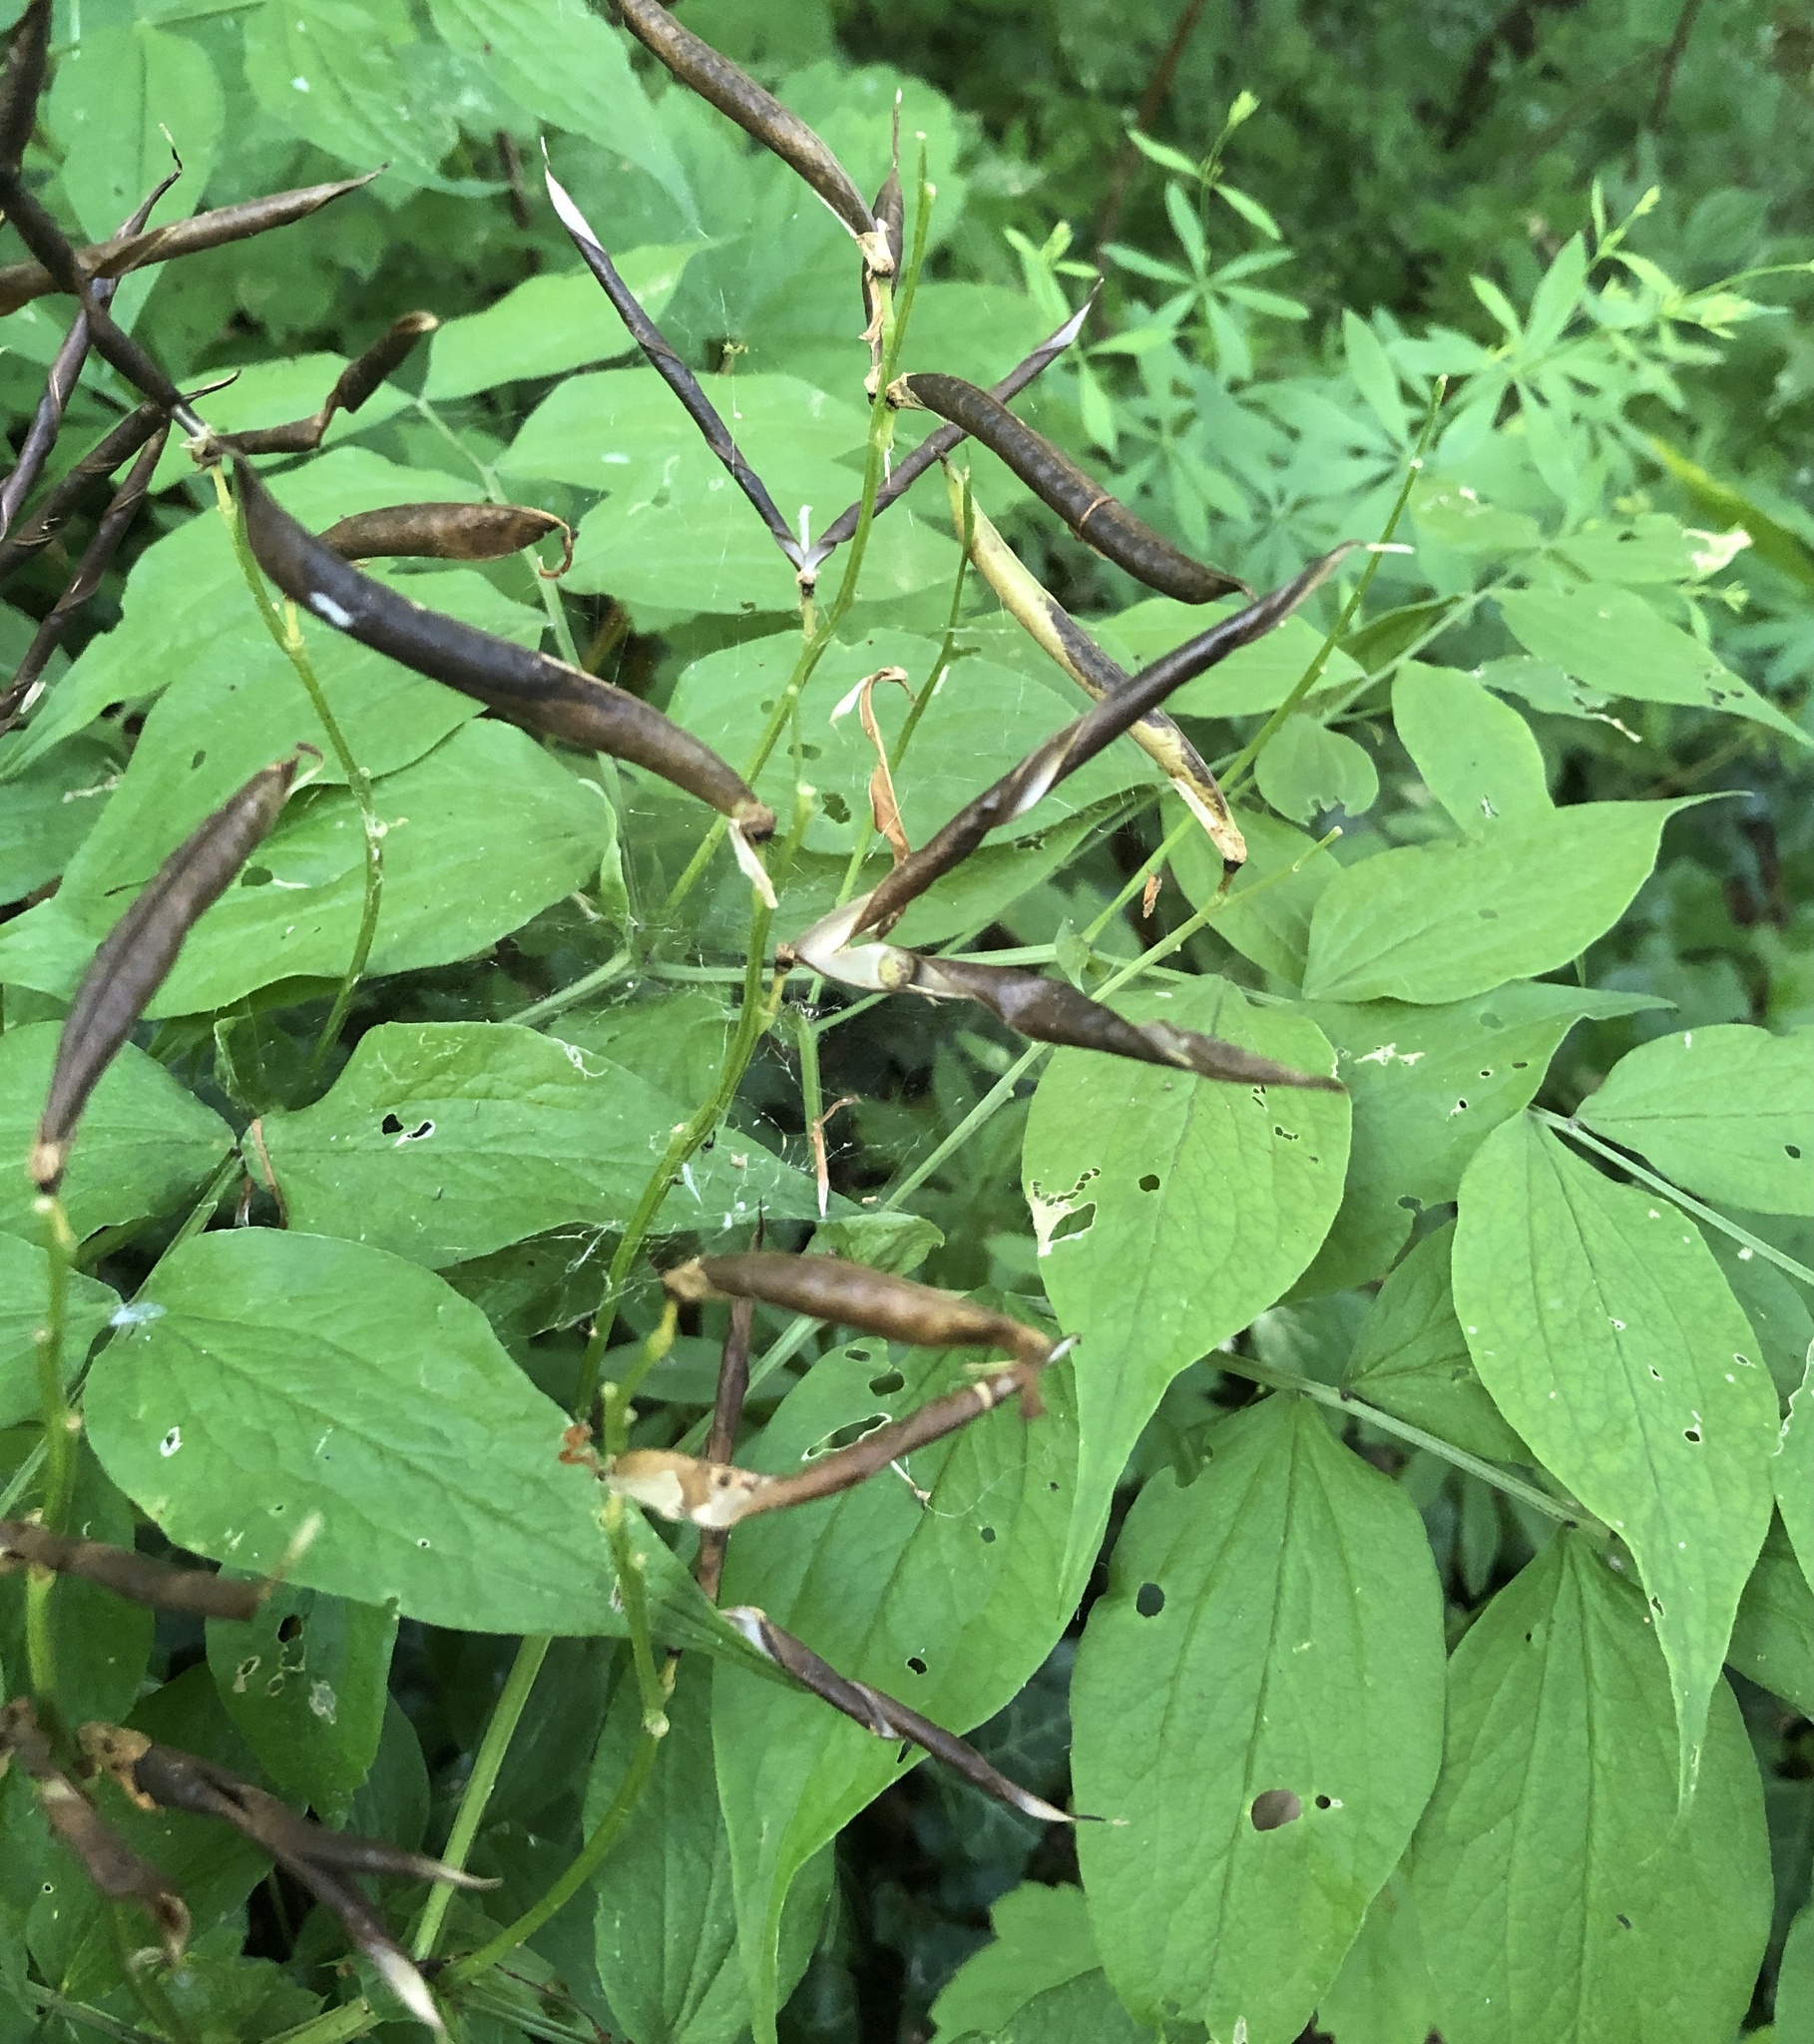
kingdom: Plantae
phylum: Tracheophyta
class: Magnoliopsida
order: Fabales
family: Fabaceae
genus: Lathyrus
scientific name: Lathyrus vernus
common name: Spring pea
